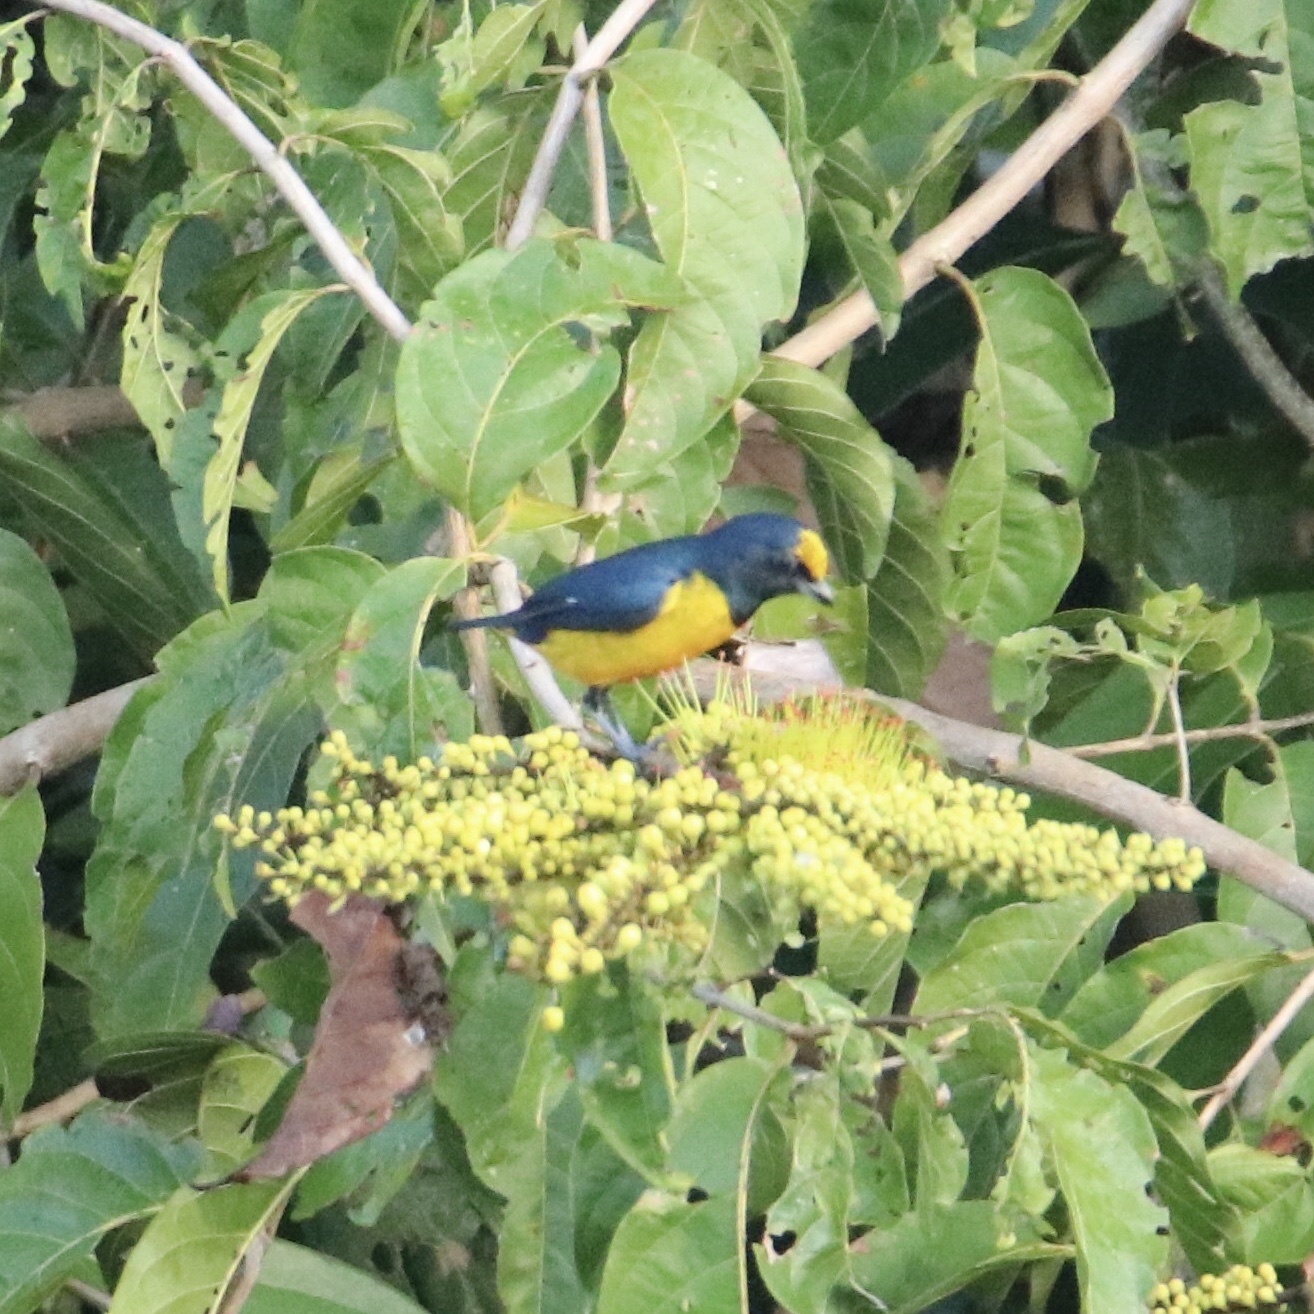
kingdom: Animalia
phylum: Chordata
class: Aves
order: Passeriformes
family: Fringillidae
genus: Euphonia
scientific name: Euphonia fulvicrissa
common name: Fulvous-vented euphonia
